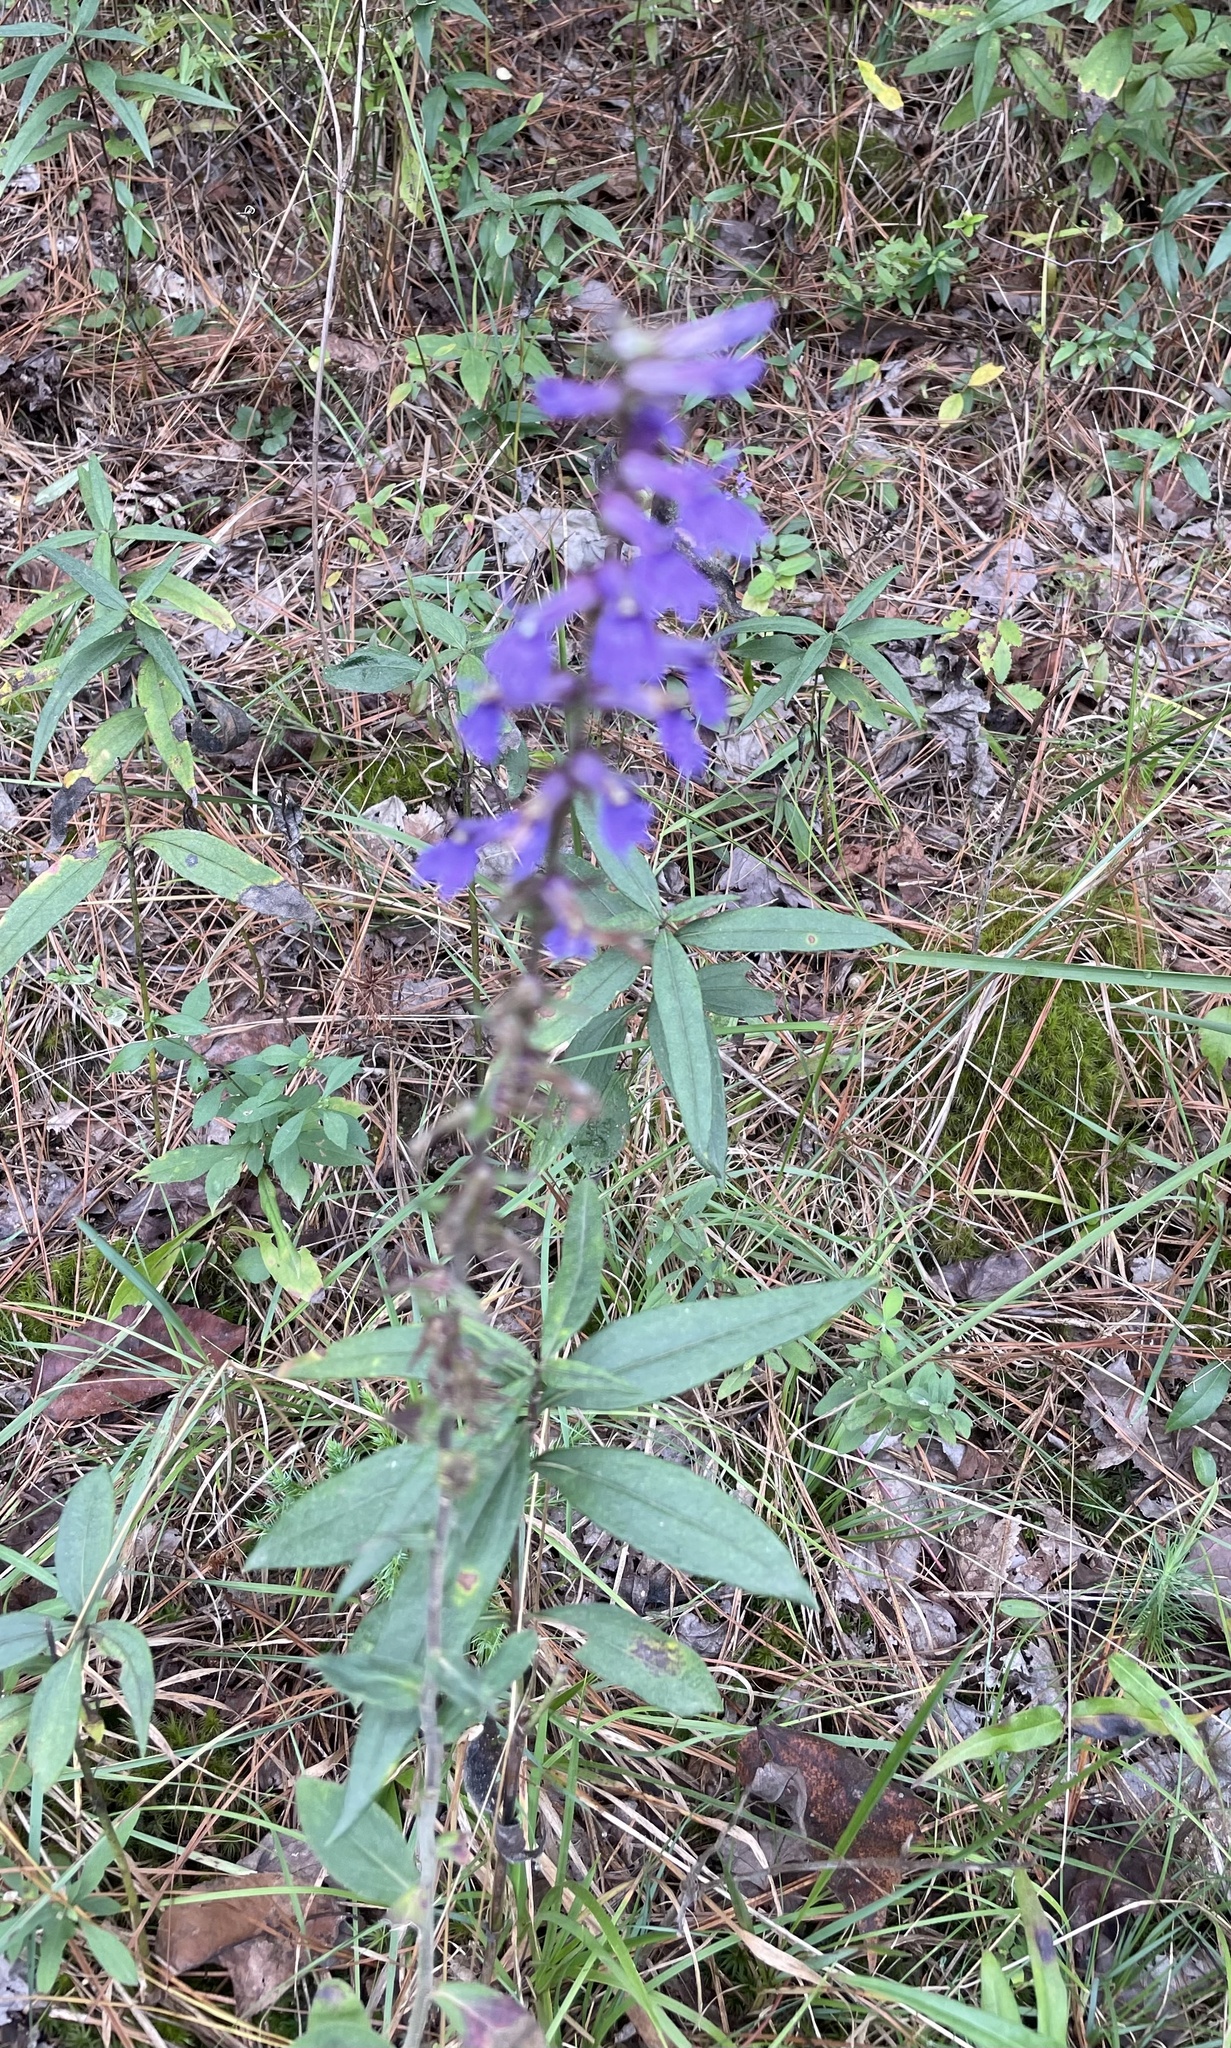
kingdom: Plantae
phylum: Tracheophyta
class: Magnoliopsida
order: Asterales
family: Campanulaceae
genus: Lobelia
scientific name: Lobelia puberula
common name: Purple dewdrop
